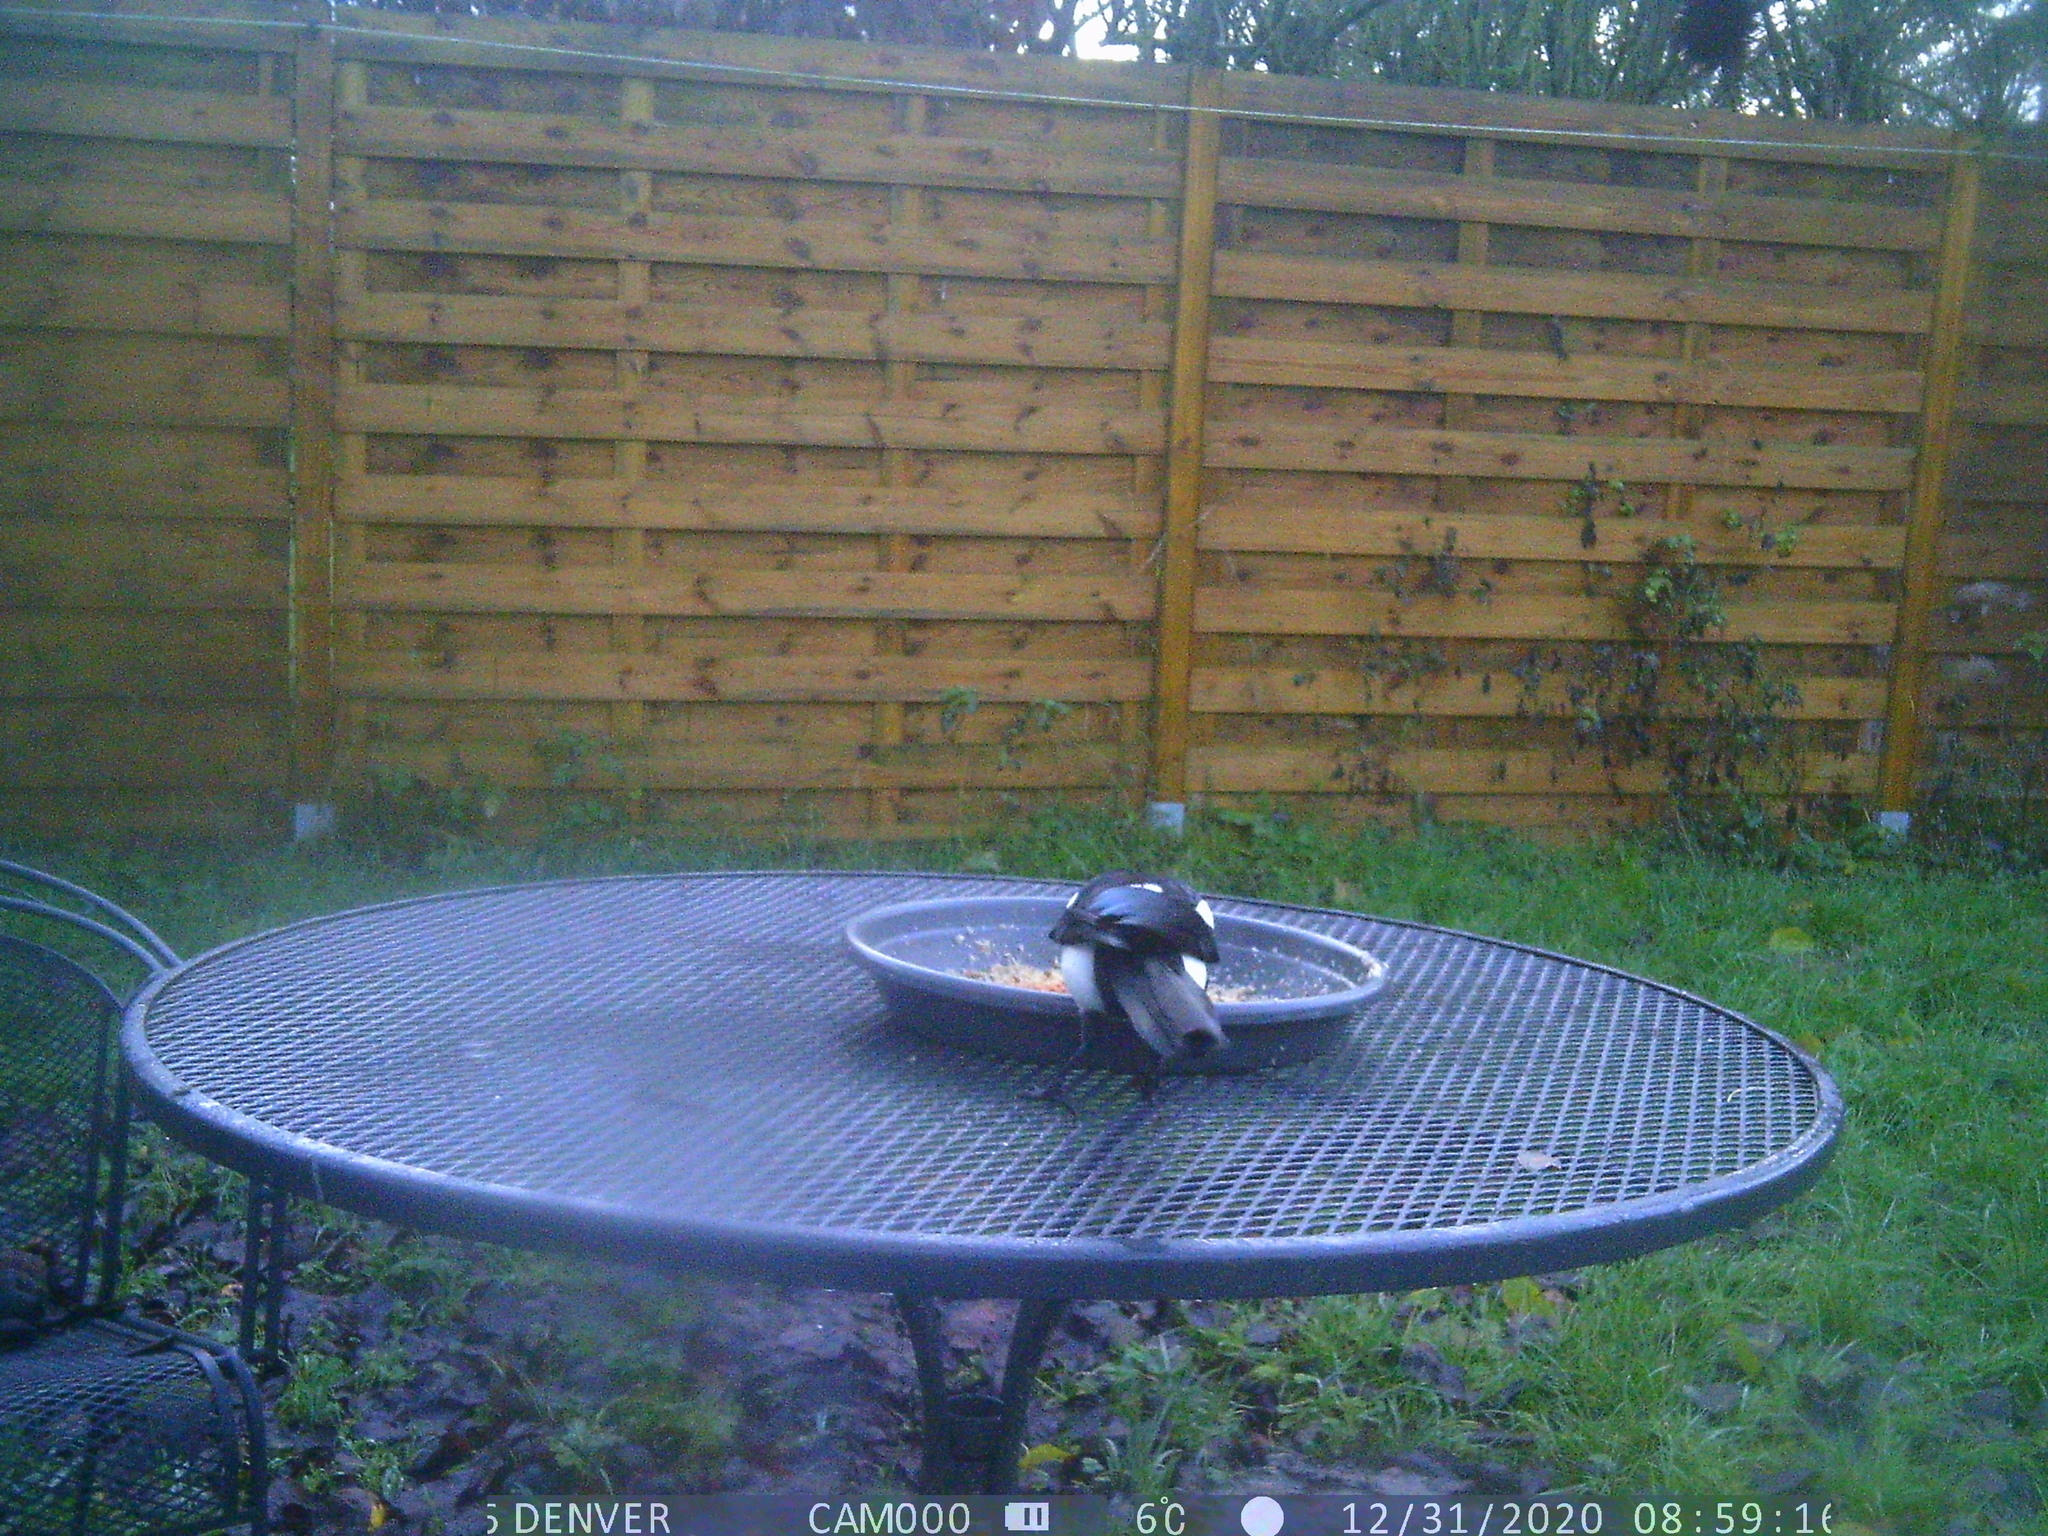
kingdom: Animalia
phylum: Chordata
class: Aves
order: Passeriformes
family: Corvidae
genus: Pica
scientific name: Pica pica
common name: Eurasian magpie
